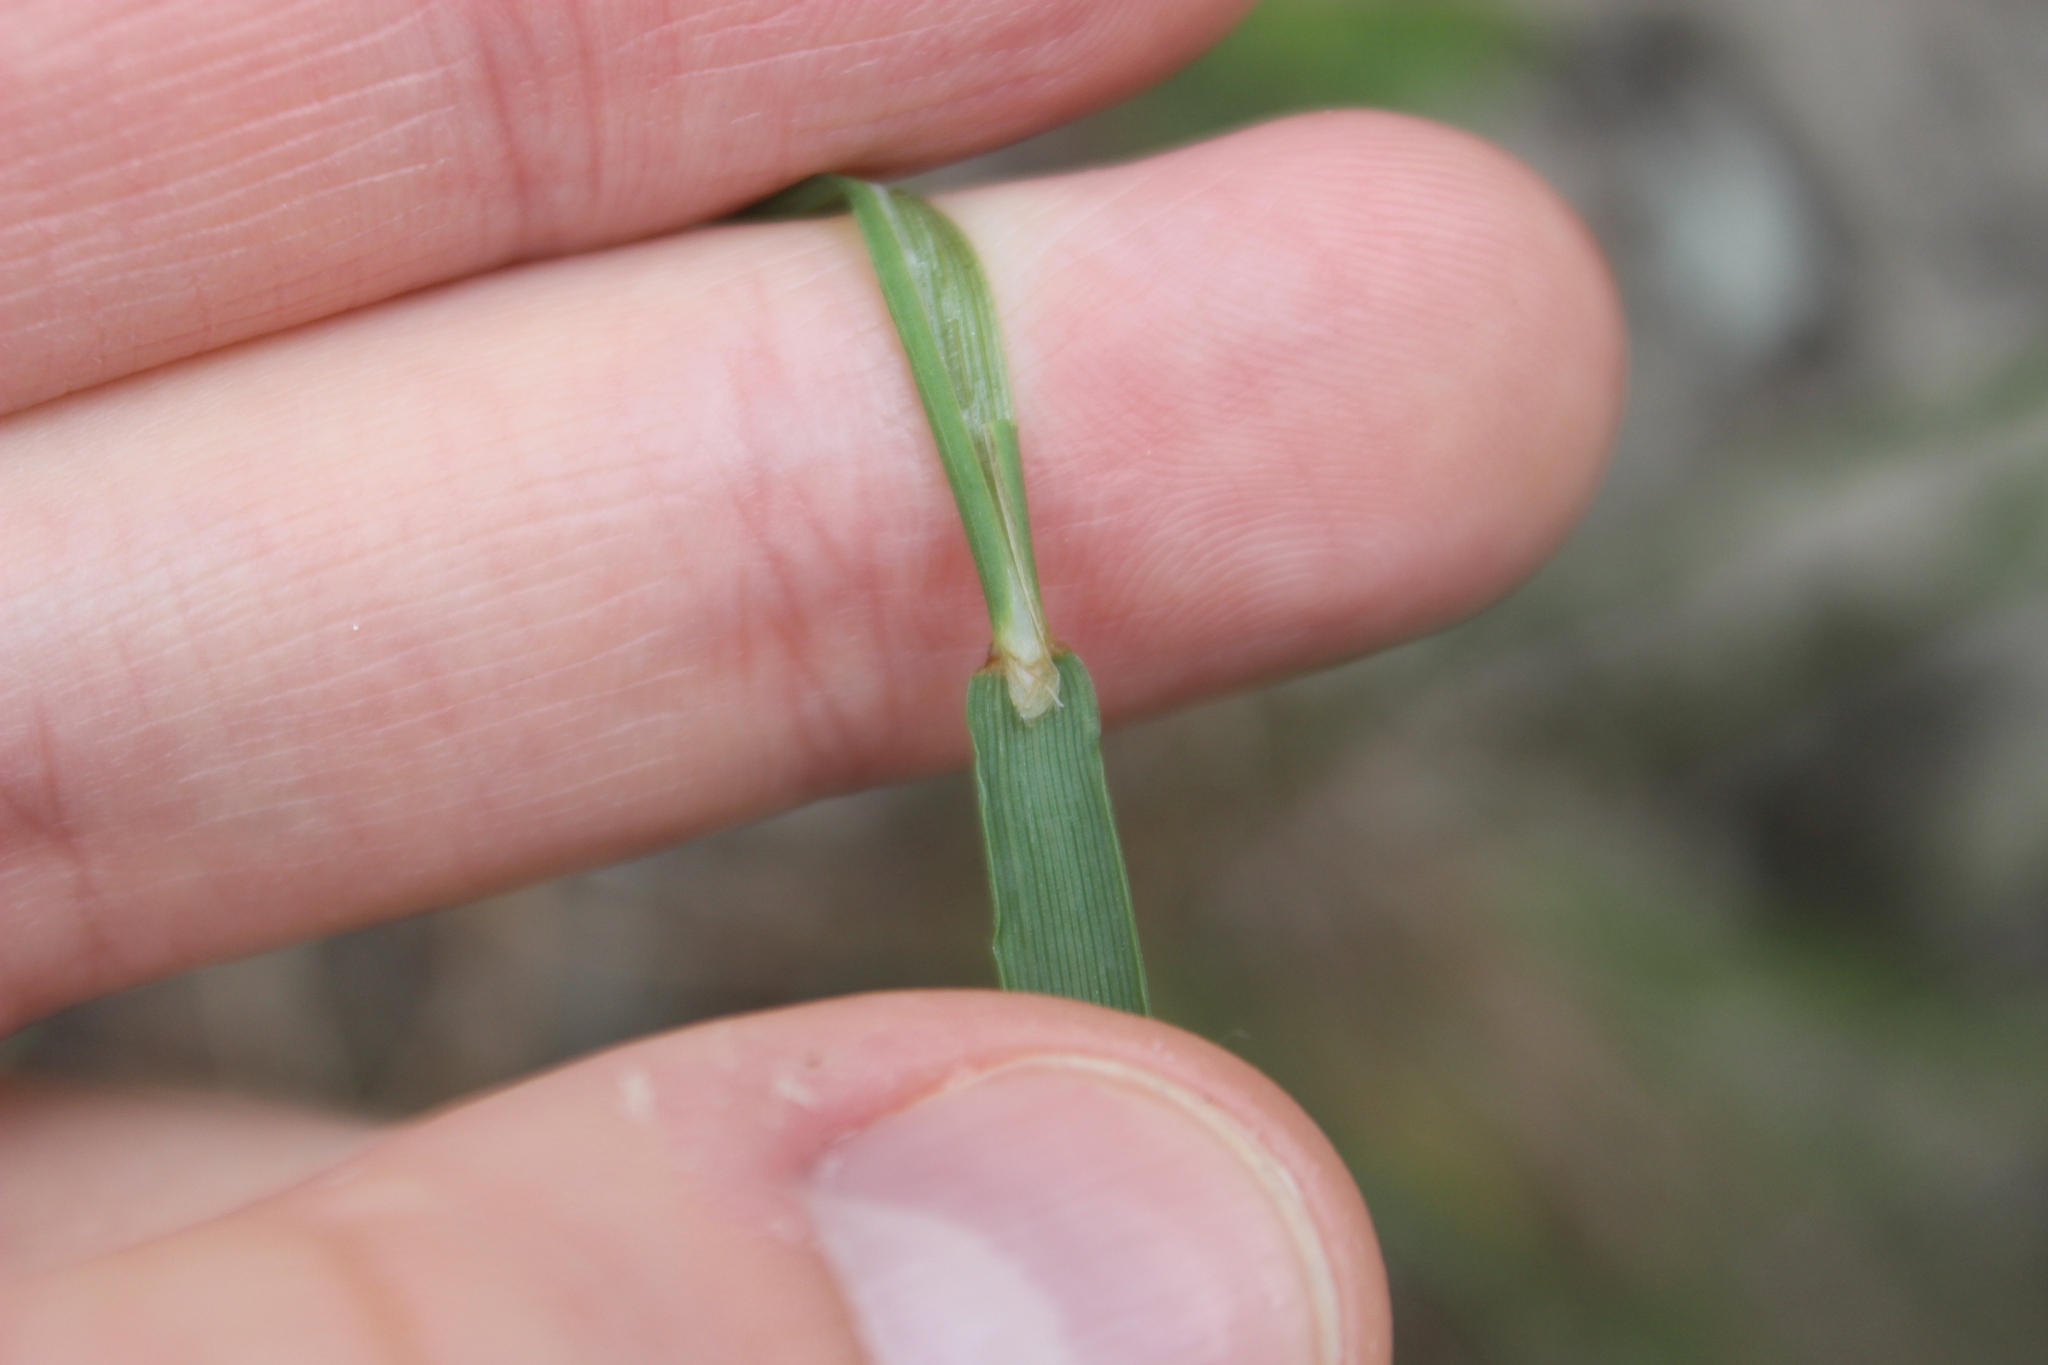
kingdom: Plantae
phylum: Tracheophyta
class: Liliopsida
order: Poales
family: Poaceae
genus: Anthoxanthum
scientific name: Anthoxanthum odoratum
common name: Sweet vernalgrass
